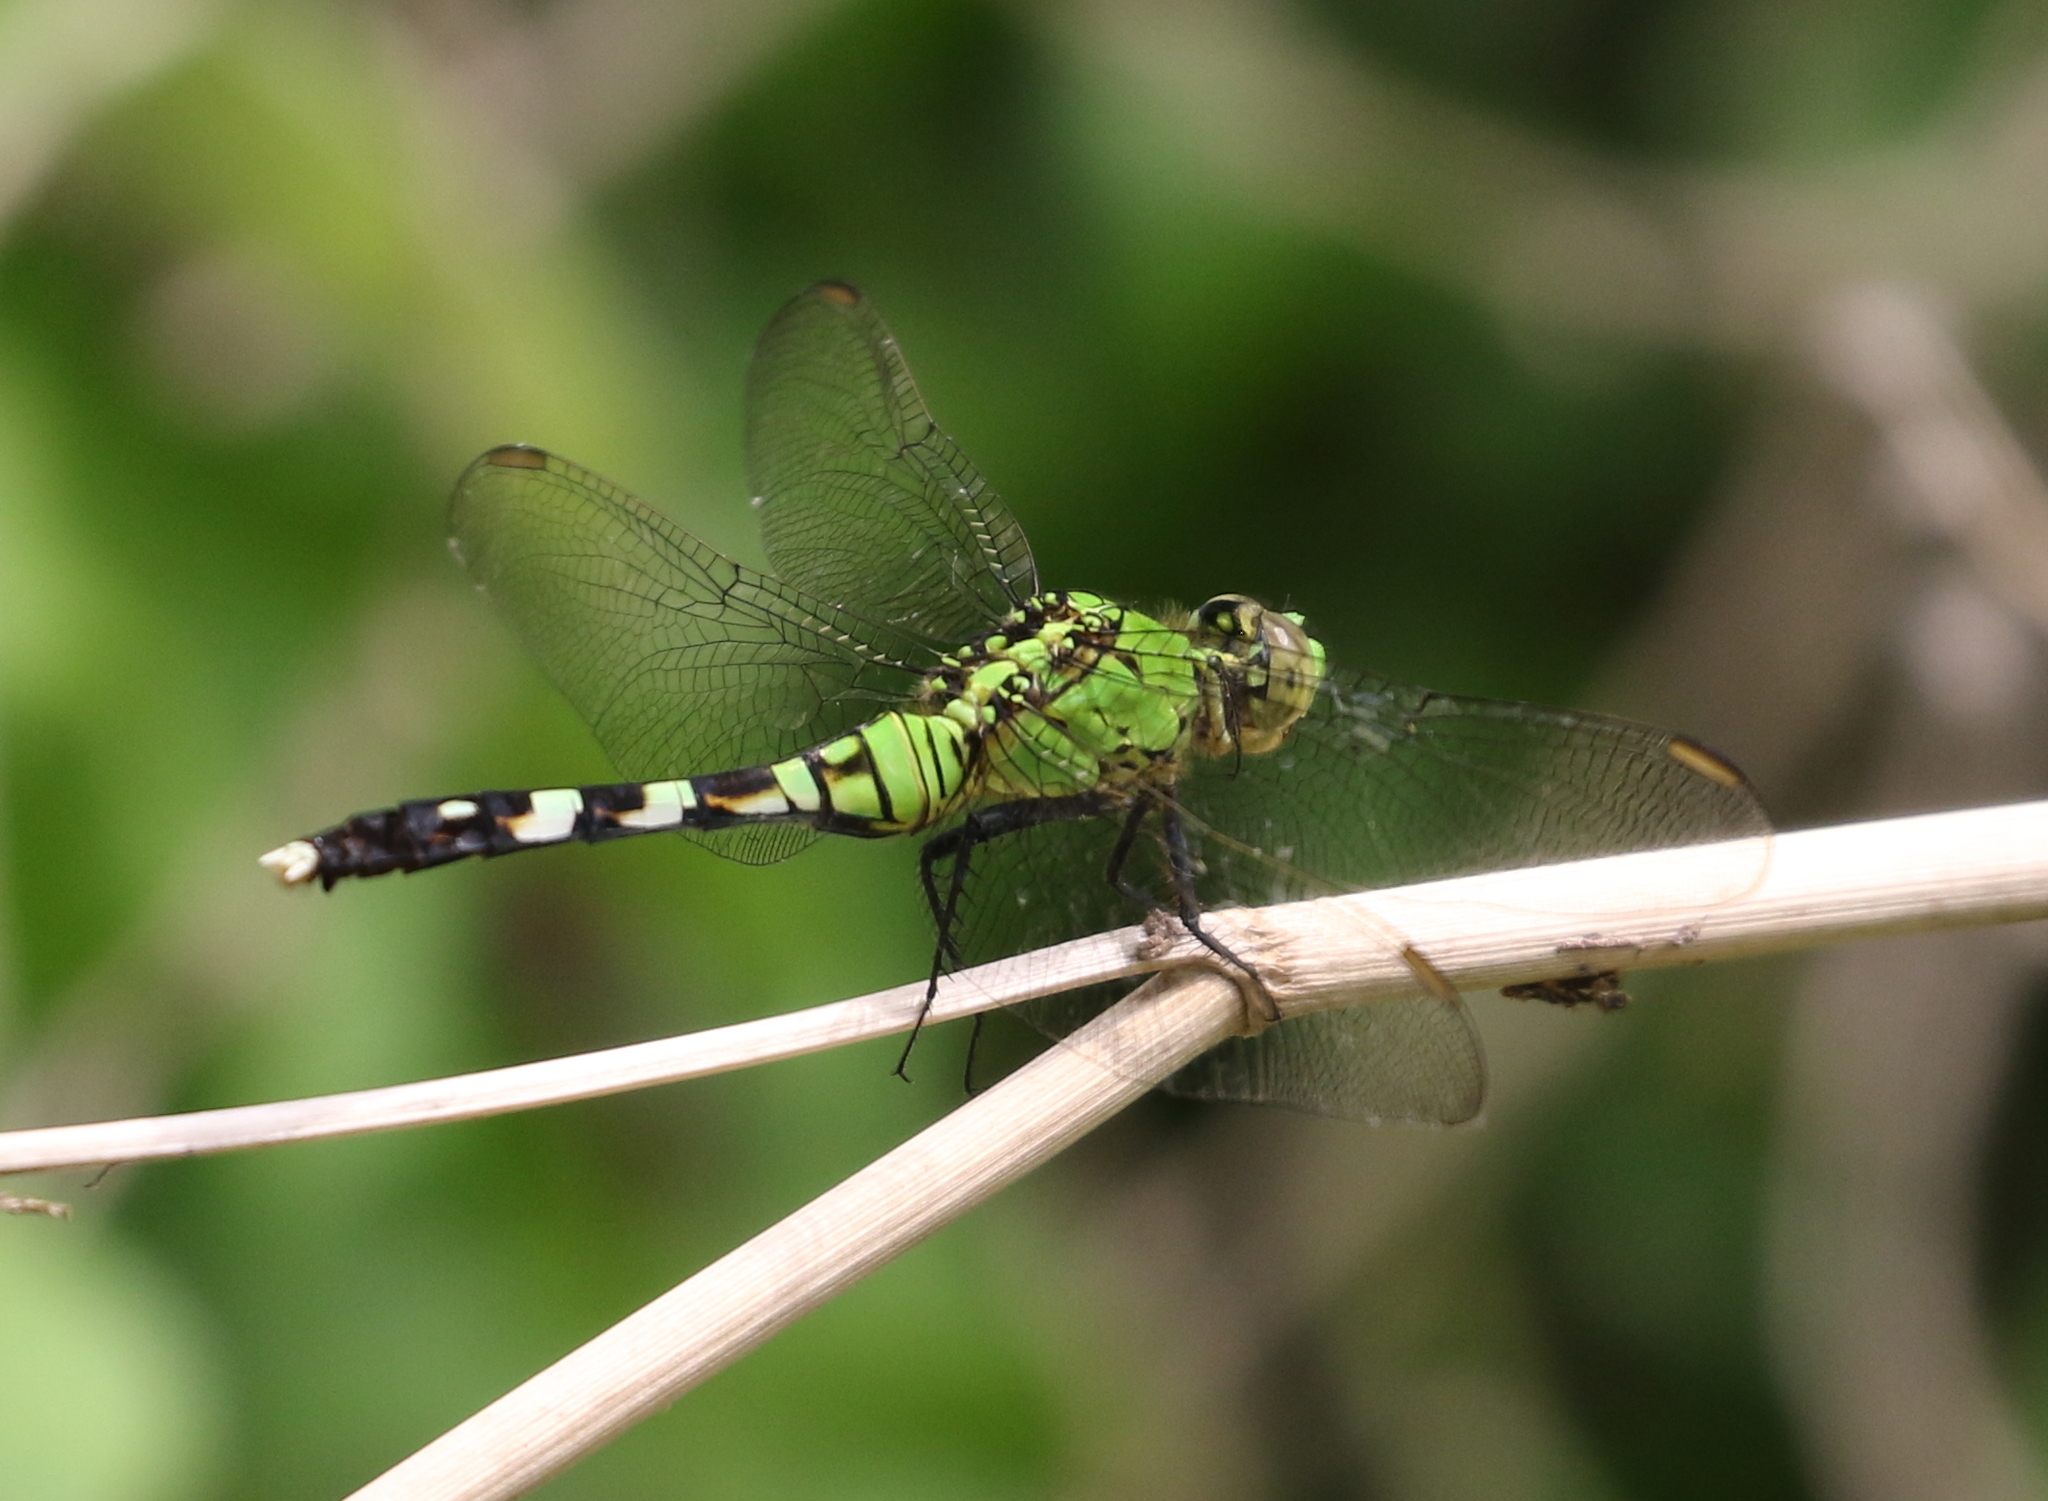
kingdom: Animalia
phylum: Arthropoda
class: Insecta
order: Odonata
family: Libellulidae
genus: Erythemis
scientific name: Erythemis simplicicollis
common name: Eastern pondhawk
